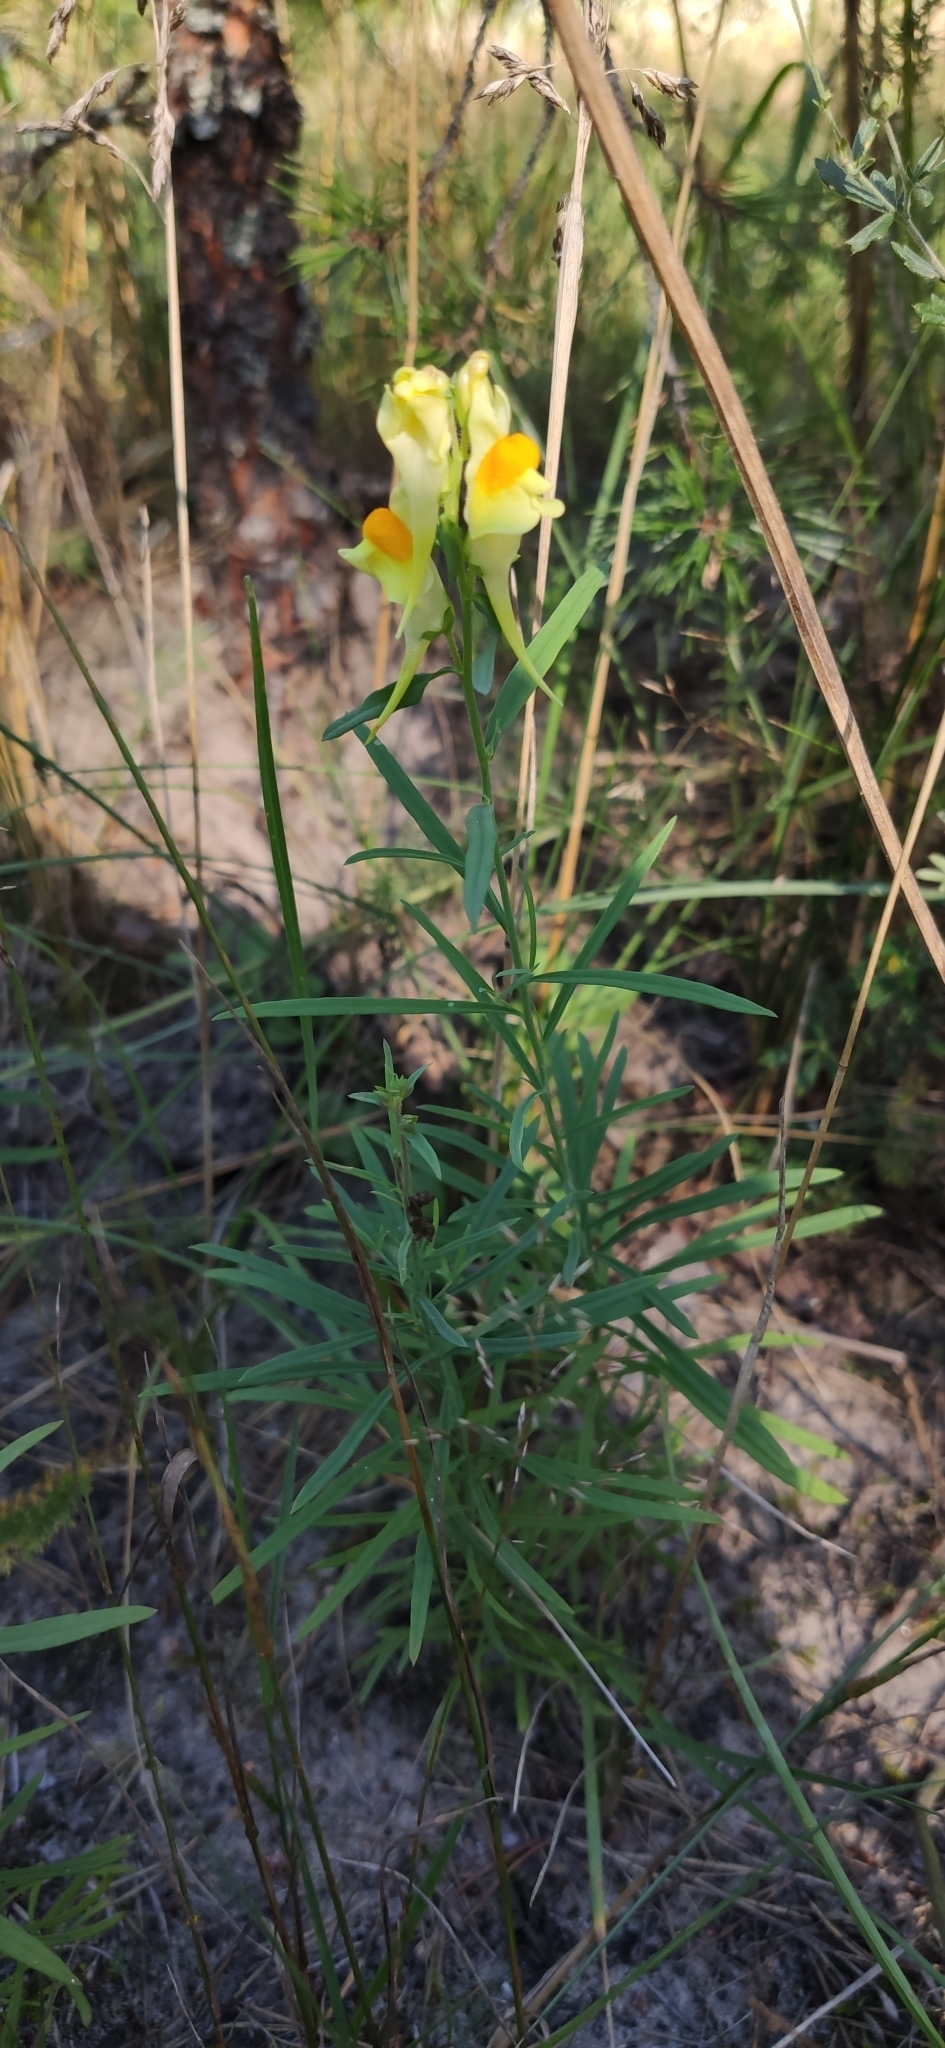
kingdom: Plantae
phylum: Tracheophyta
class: Magnoliopsida
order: Lamiales
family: Plantaginaceae
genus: Linaria
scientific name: Linaria vulgaris
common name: Butter and eggs
